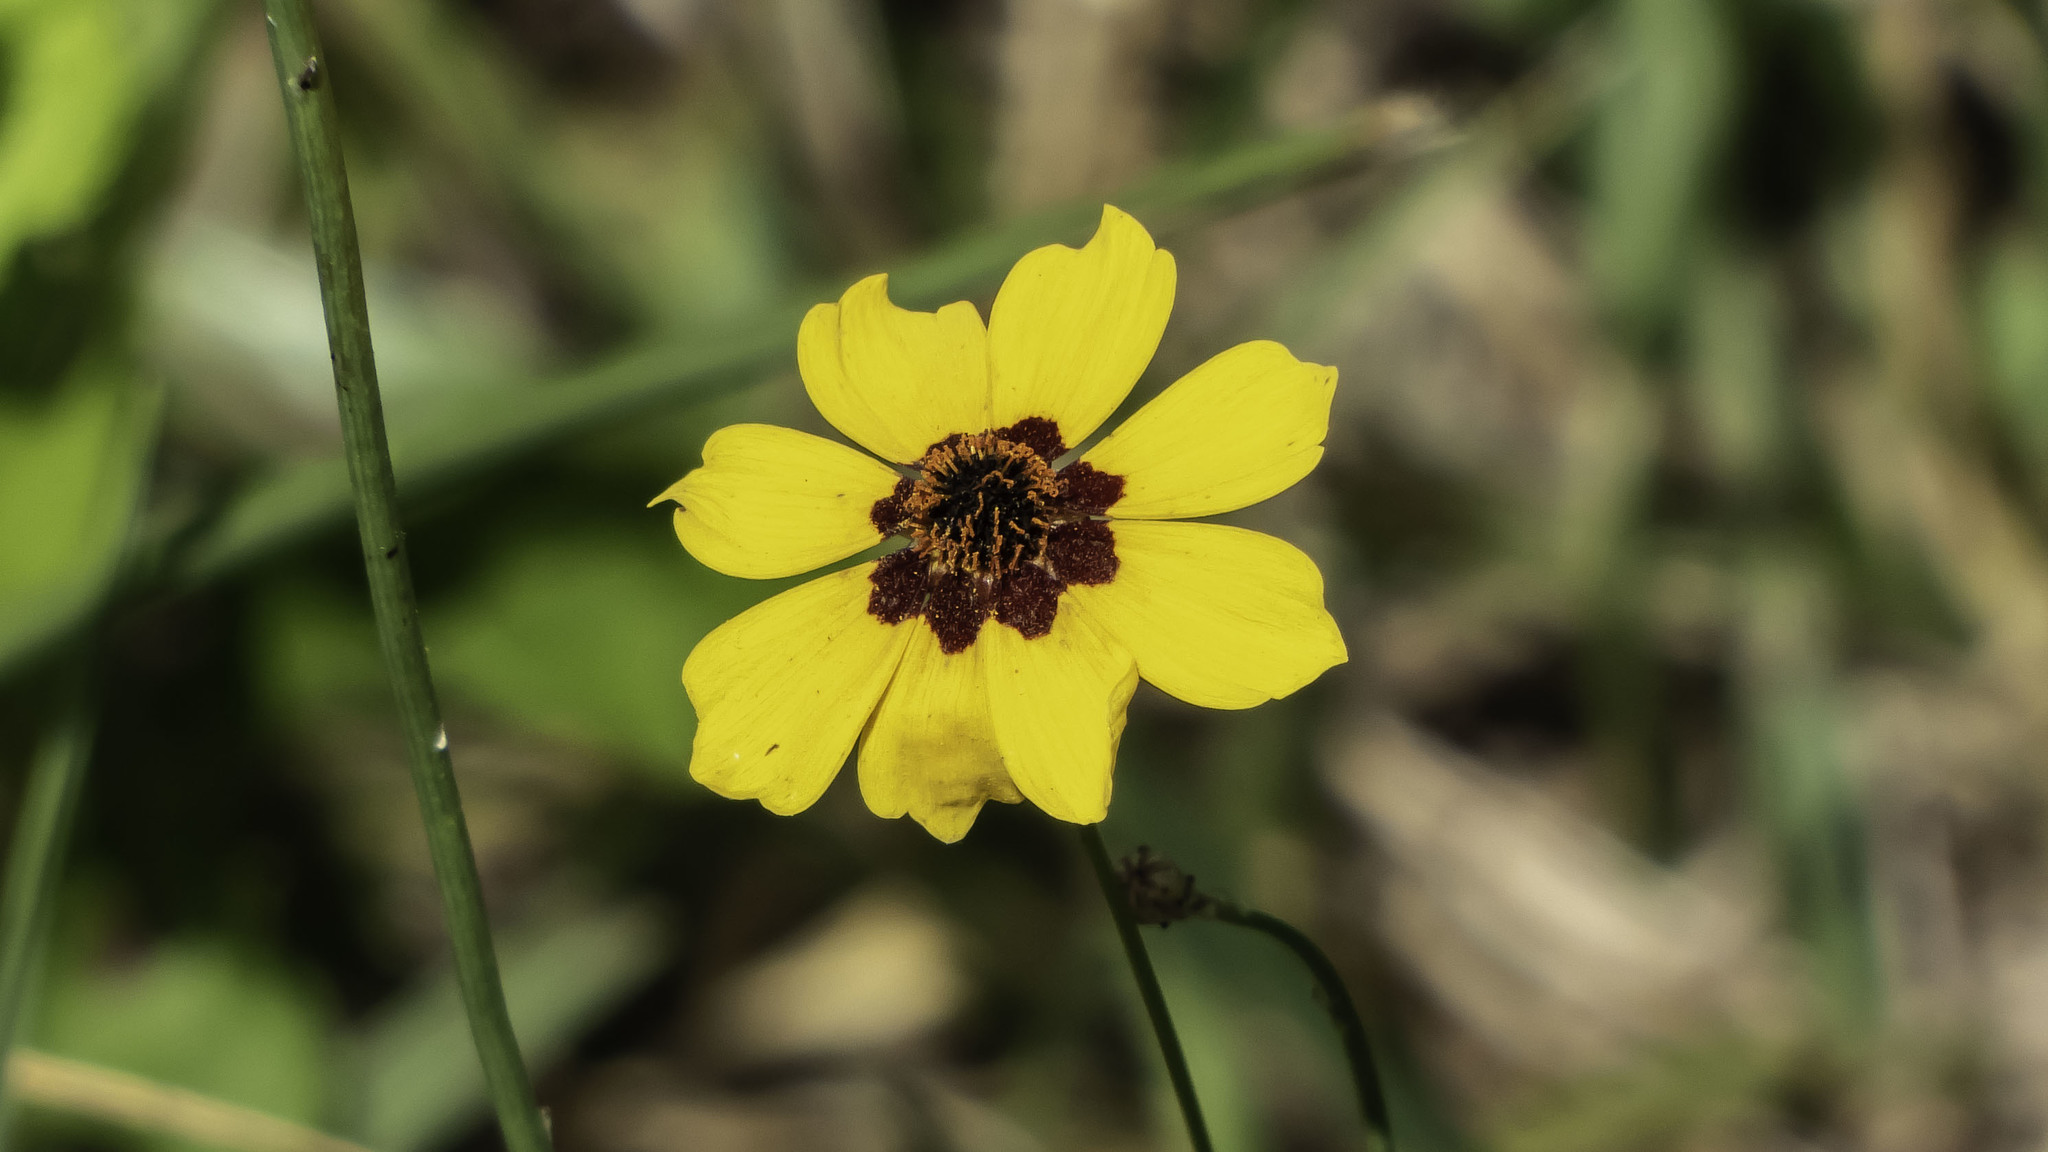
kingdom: Plantae
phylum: Tracheophyta
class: Magnoliopsida
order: Asterales
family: Asteraceae
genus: Coreopsis
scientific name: Coreopsis tinctoria
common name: Garden tickseed
